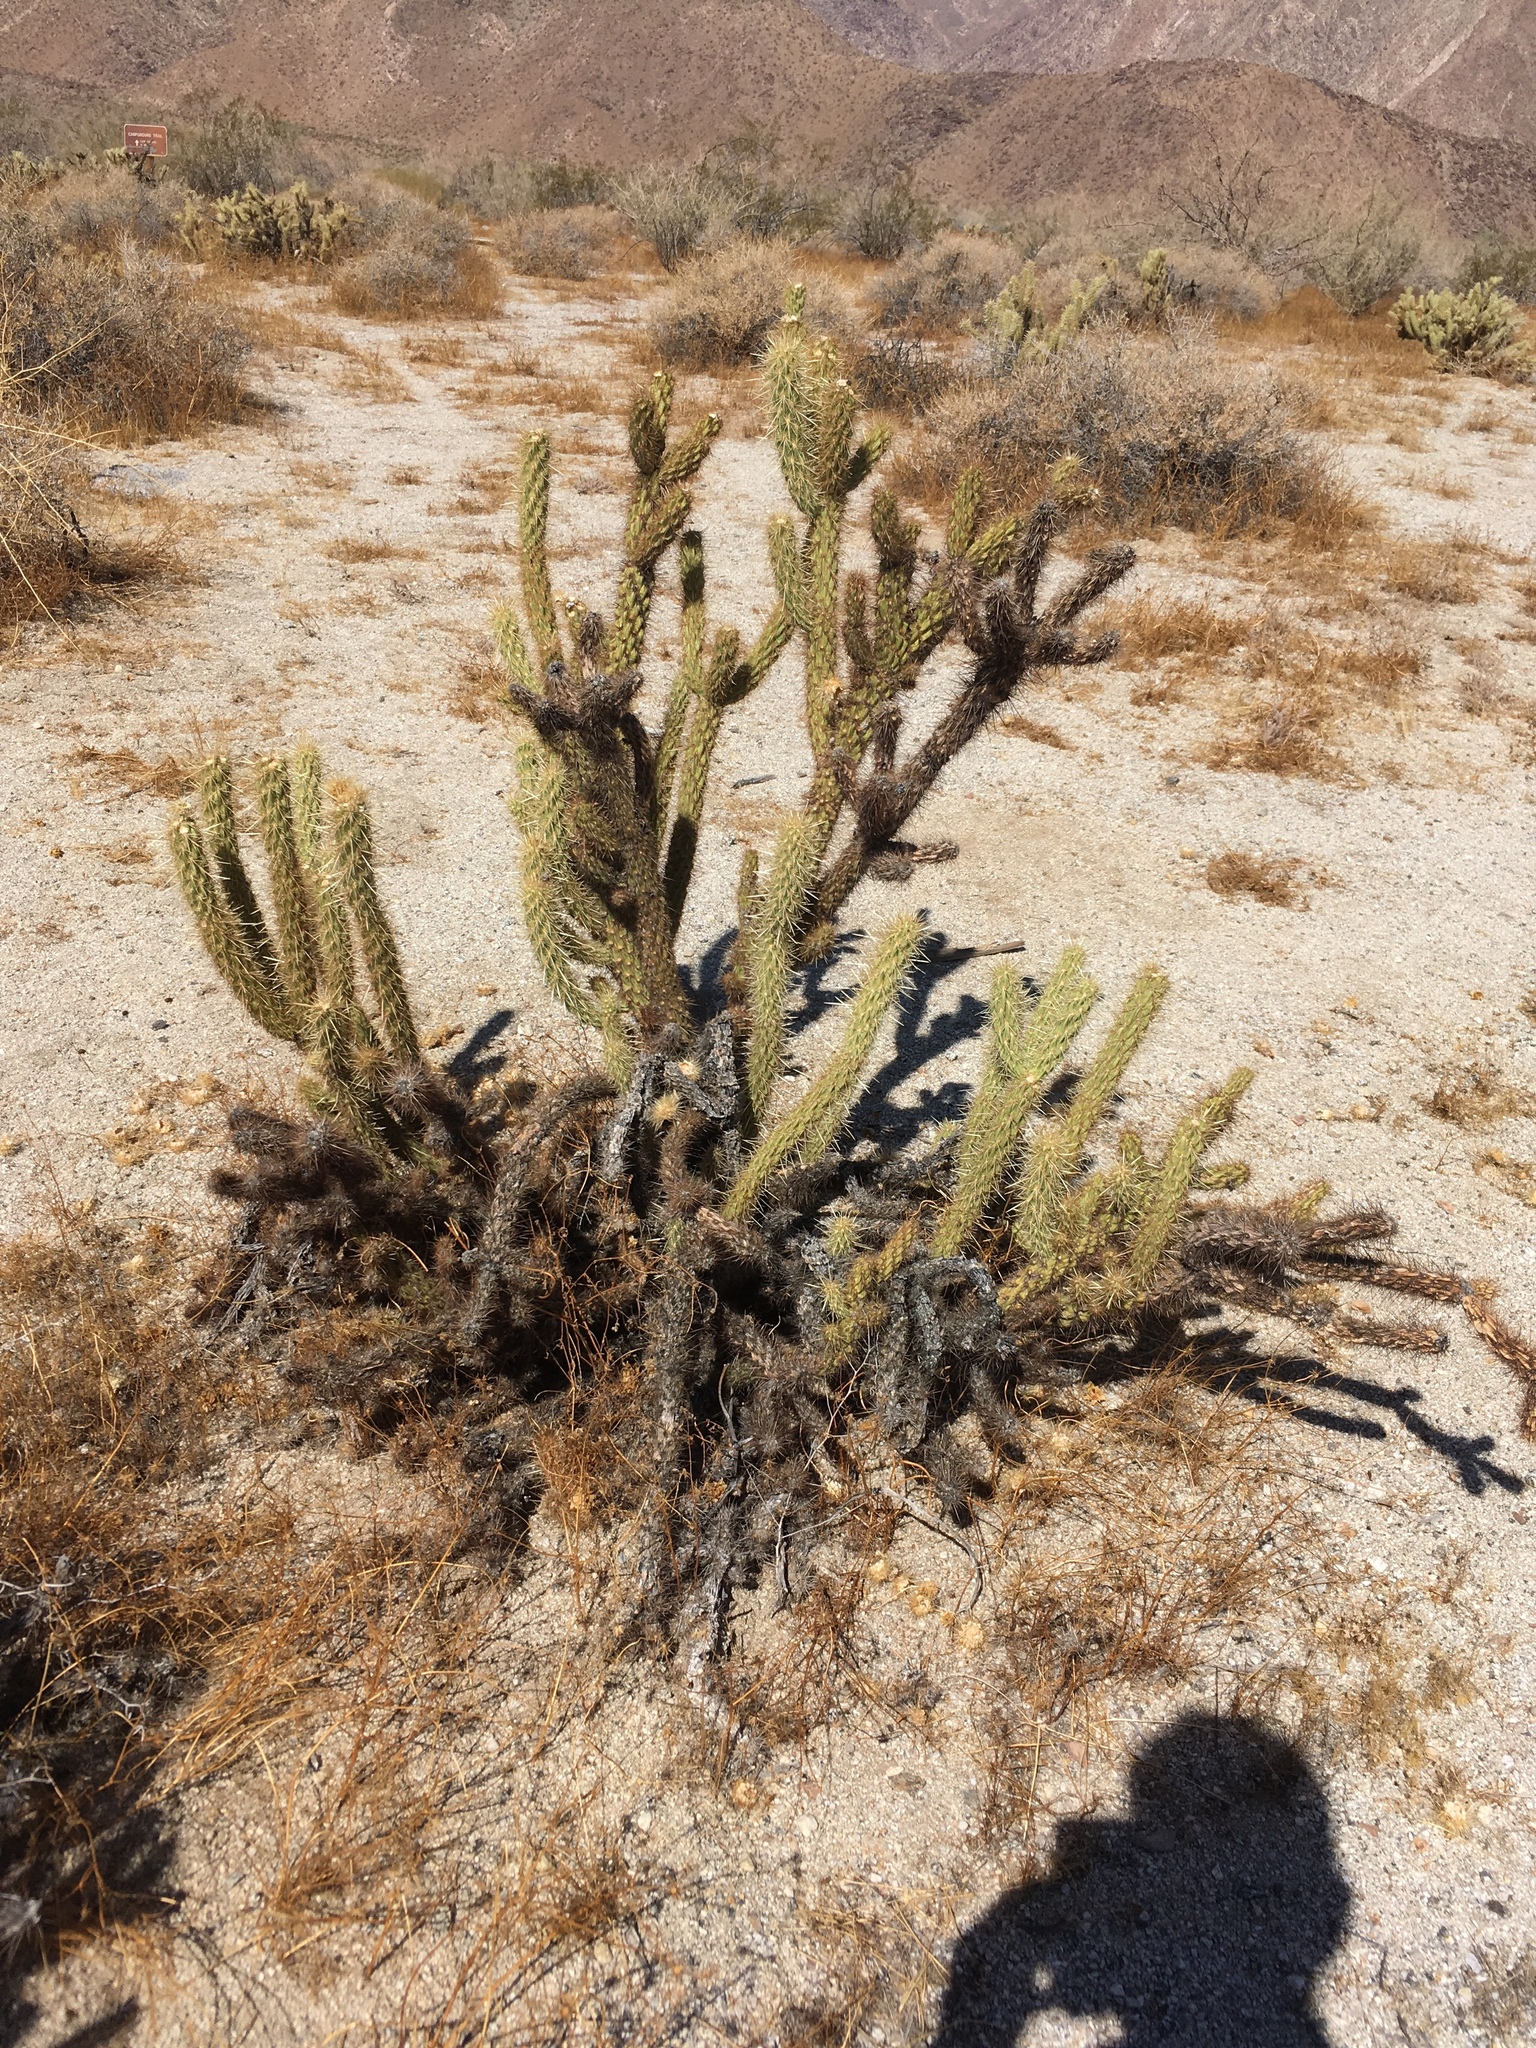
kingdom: Plantae
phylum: Tracheophyta
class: Magnoliopsida
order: Caryophyllales
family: Cactaceae
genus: Cylindropuntia
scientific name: Cylindropuntia ganderi
